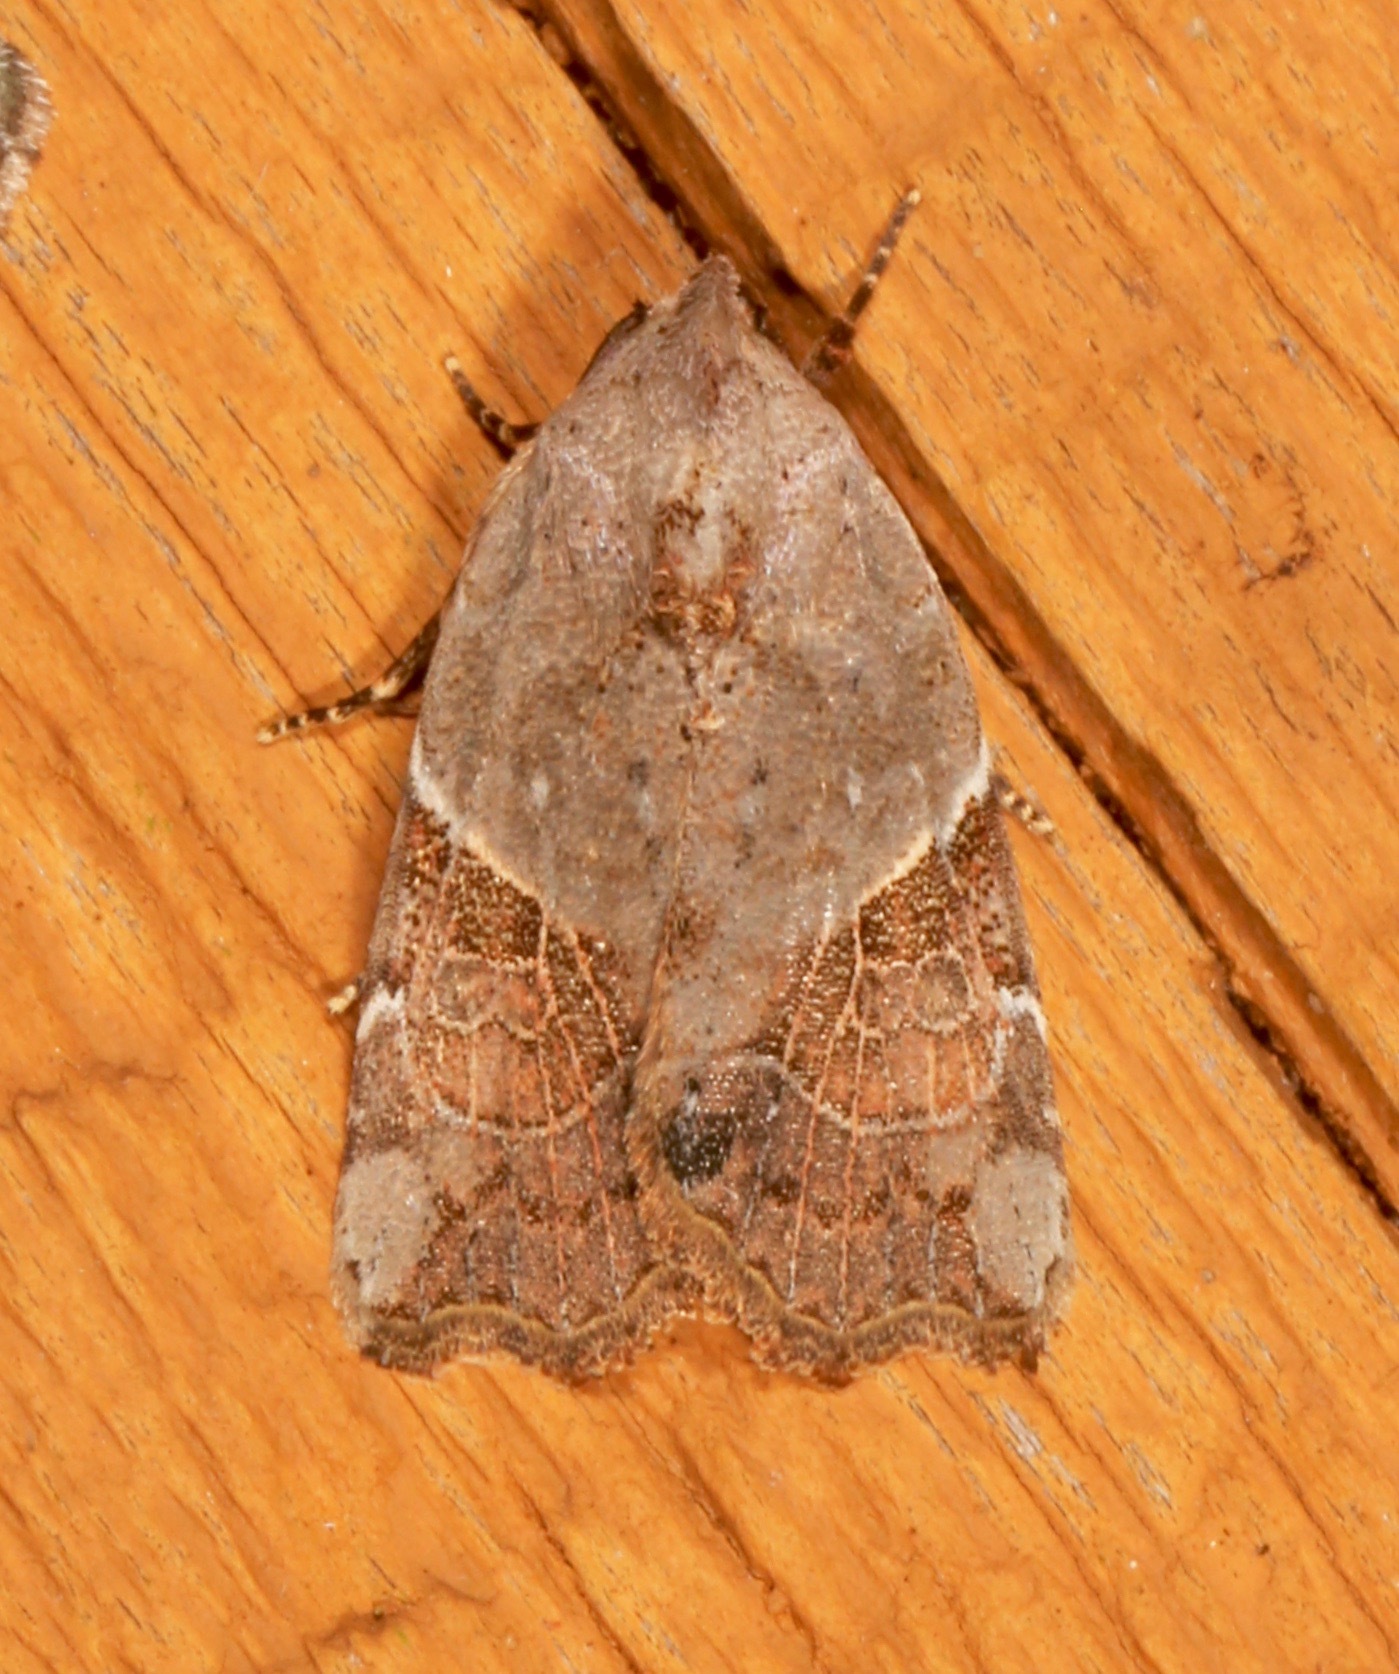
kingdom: Animalia
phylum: Arthropoda
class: Insecta
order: Lepidoptera
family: Noctuidae
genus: Gonodes
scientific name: Gonodes liquida
